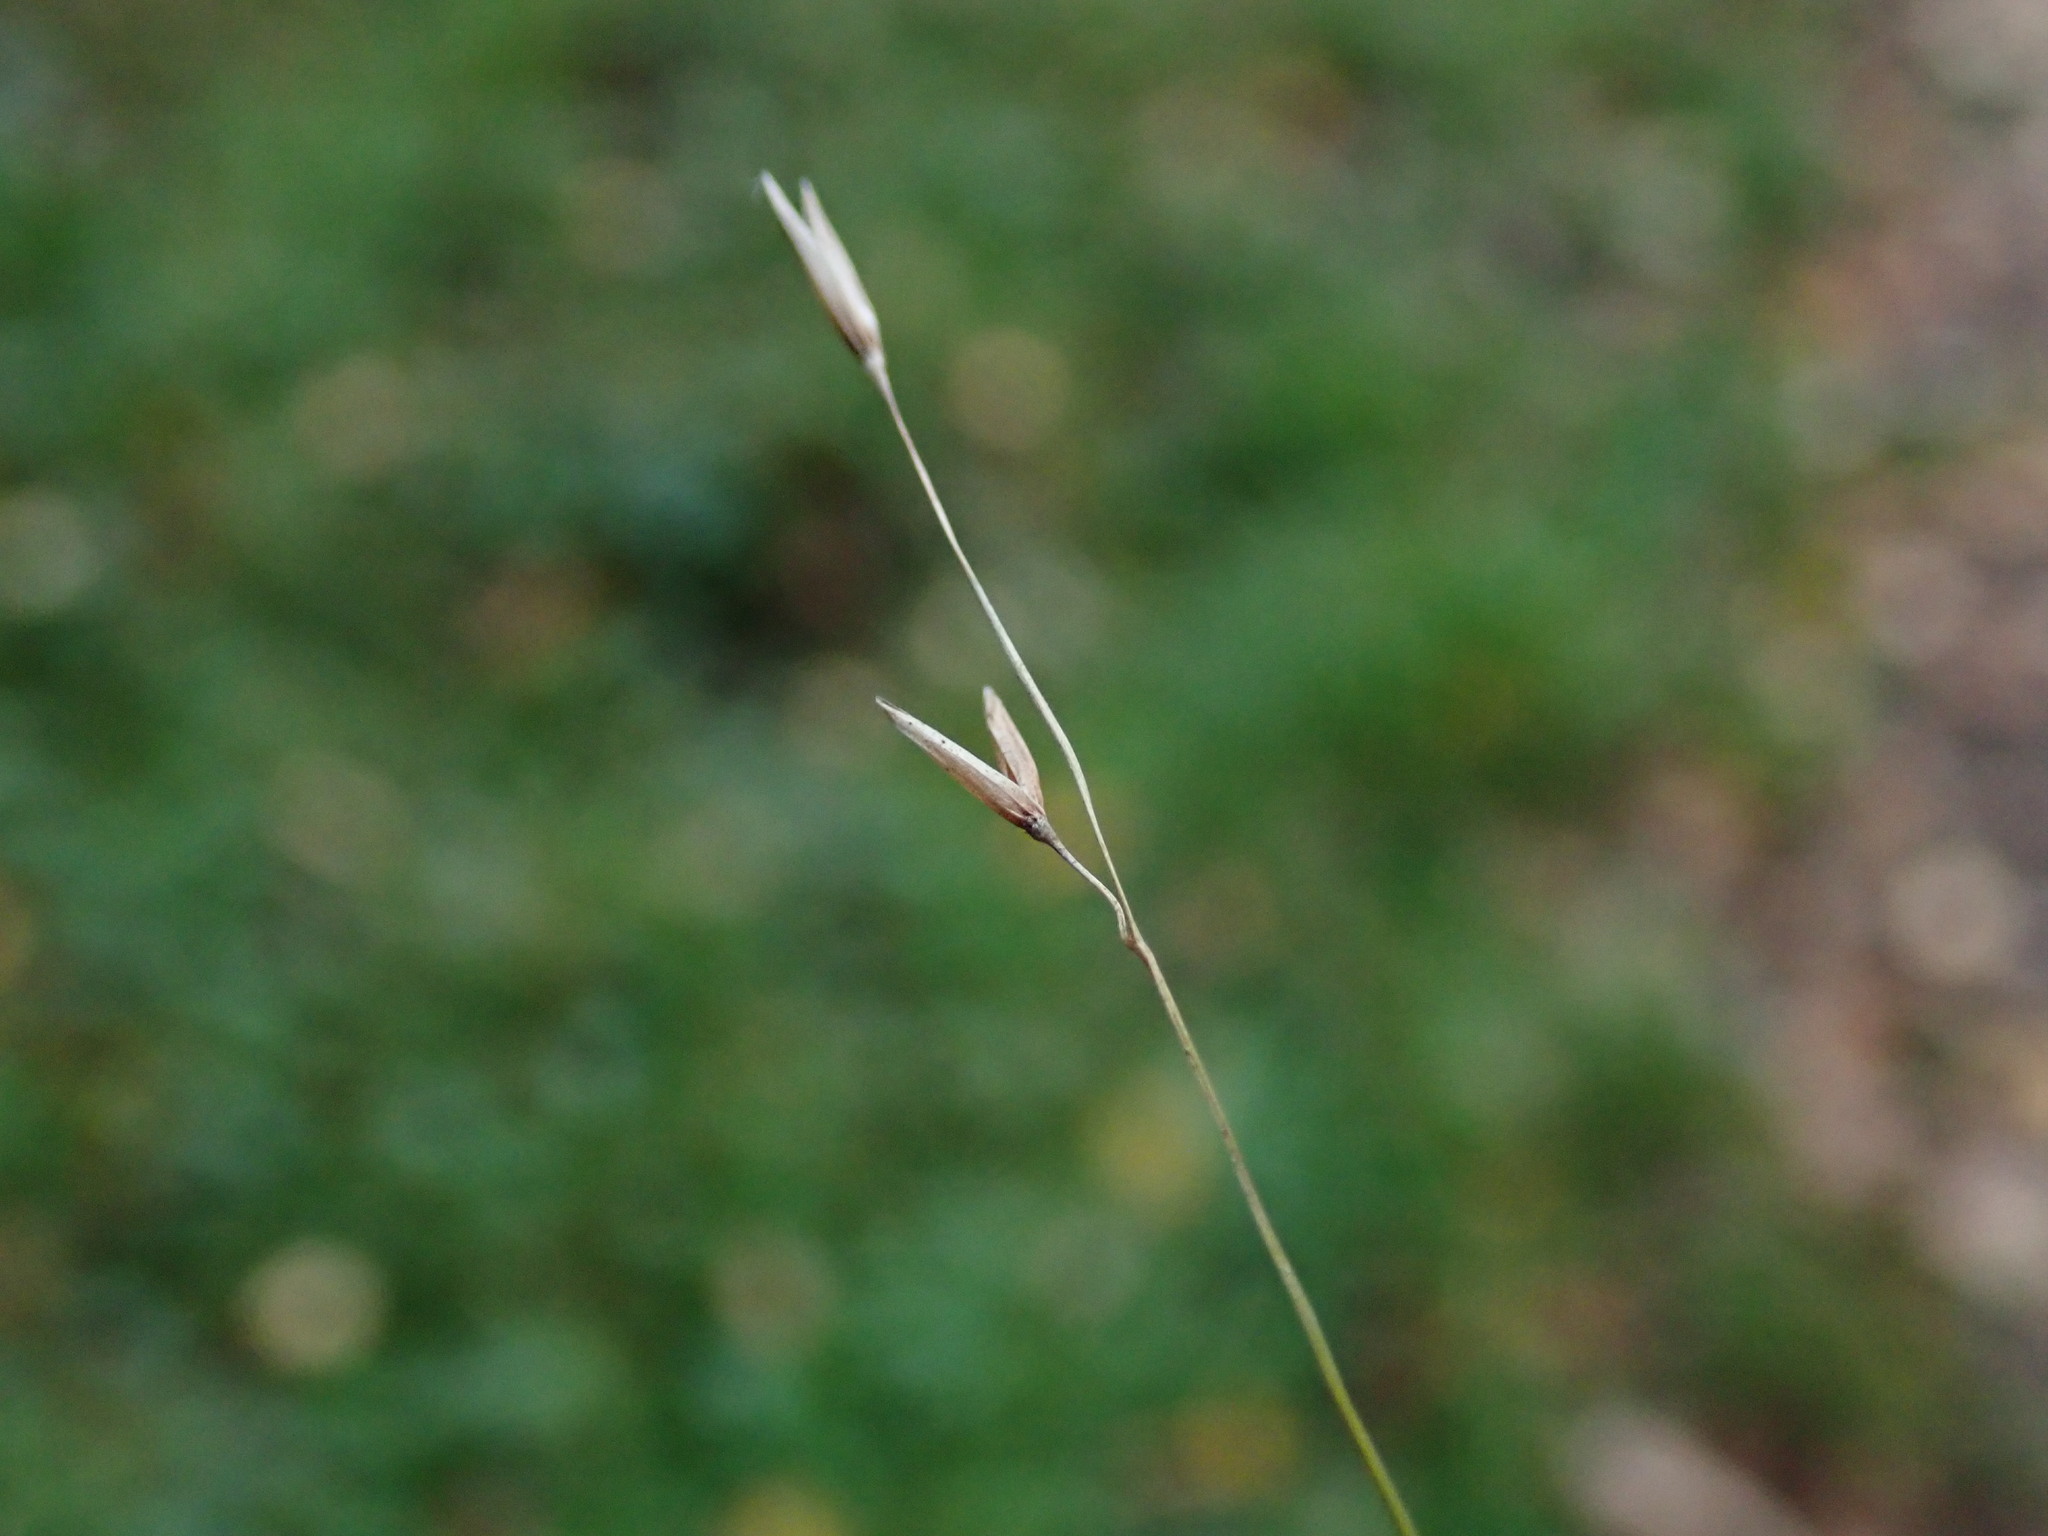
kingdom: Plantae
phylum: Tracheophyta
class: Liliopsida
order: Poales
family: Poaceae
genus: Melica
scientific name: Melica uniflora
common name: Wood melick
